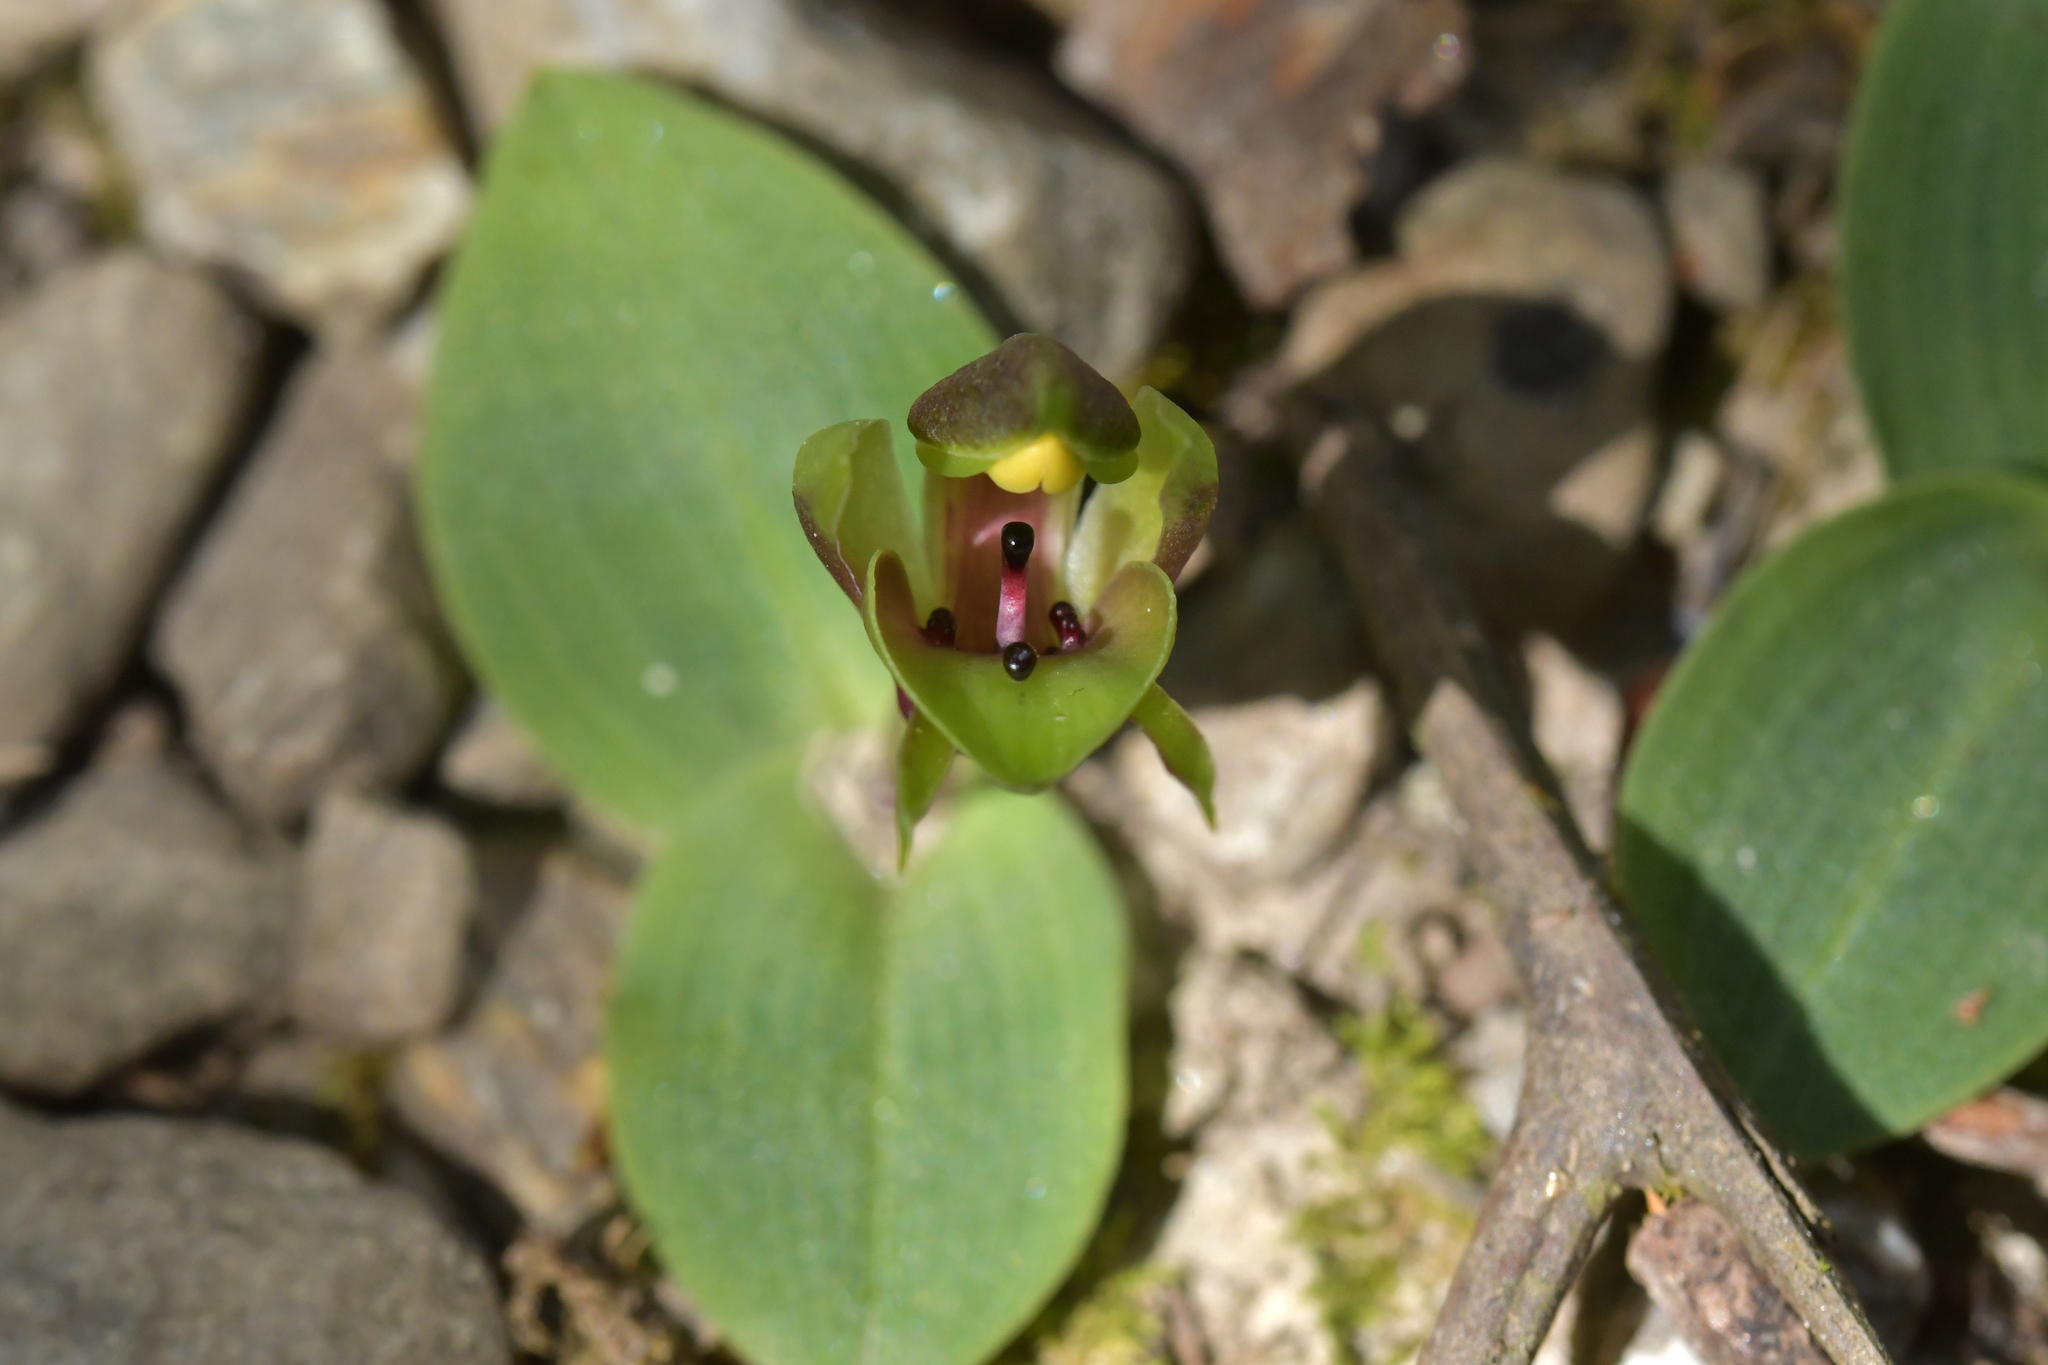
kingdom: Plantae
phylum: Tracheophyta
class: Liliopsida
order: Asparagales
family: Orchidaceae
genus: Chiloglottis
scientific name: Chiloglottis valida
